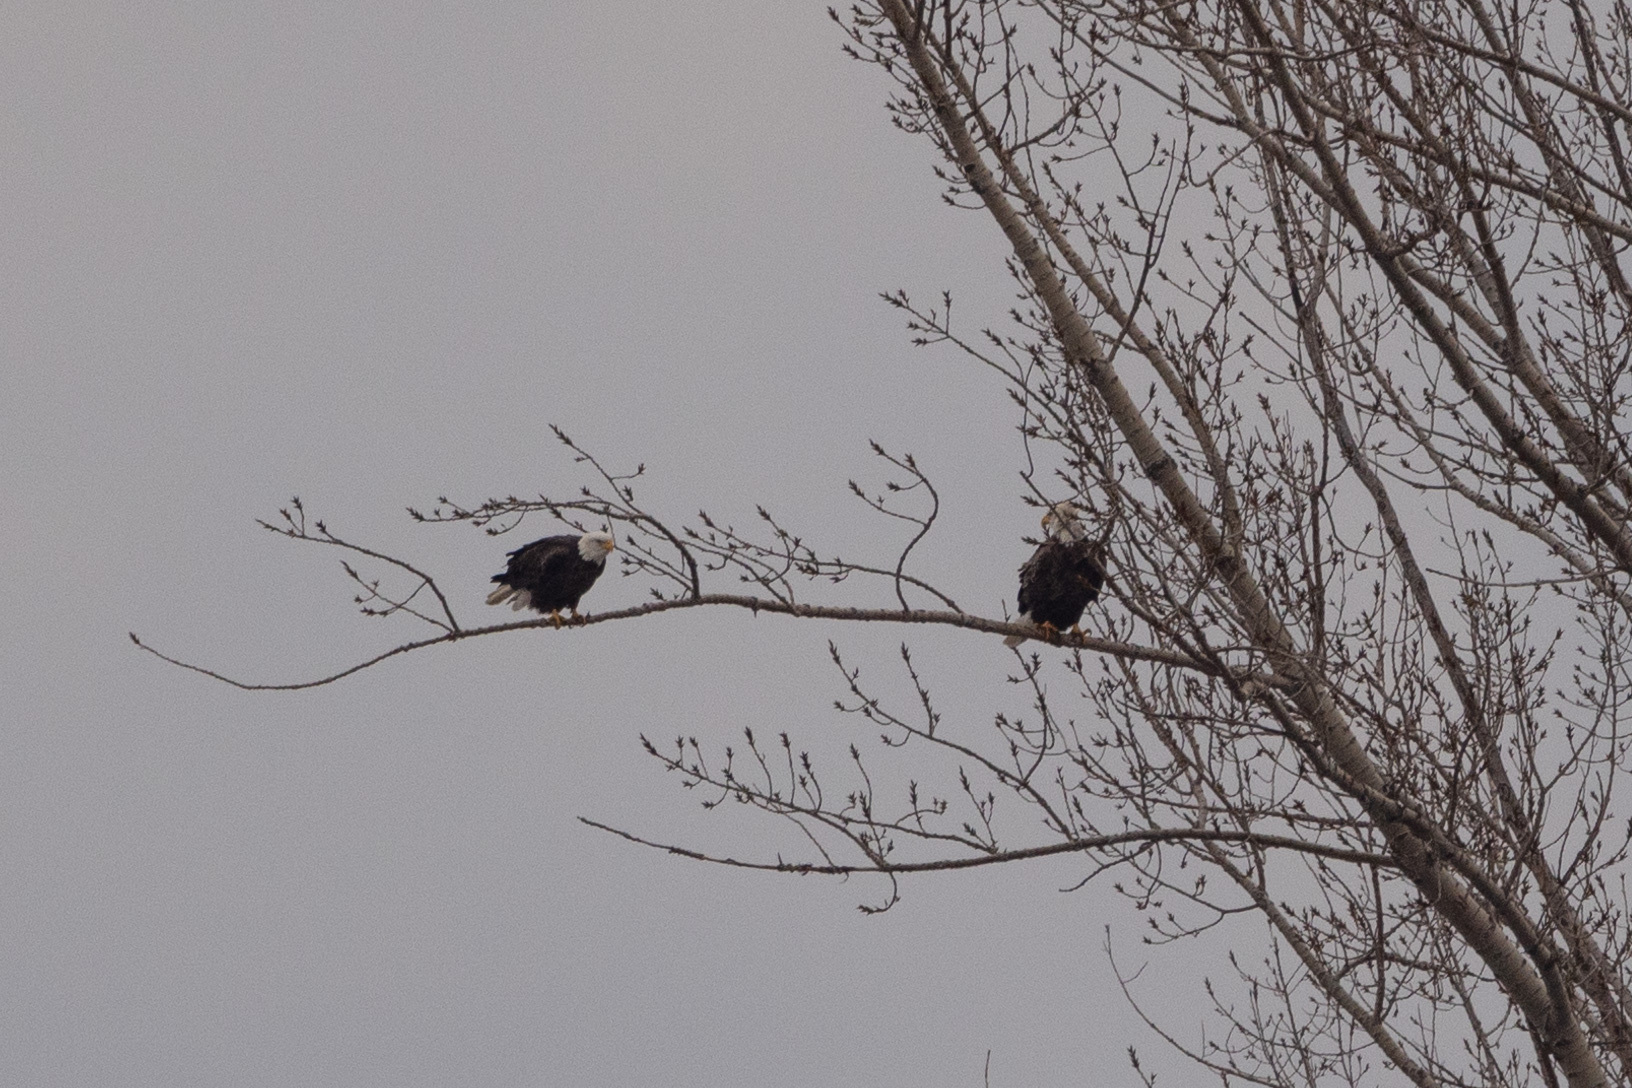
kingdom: Animalia
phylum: Chordata
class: Aves
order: Accipitriformes
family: Accipitridae
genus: Haliaeetus
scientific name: Haliaeetus leucocephalus
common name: Bald eagle
